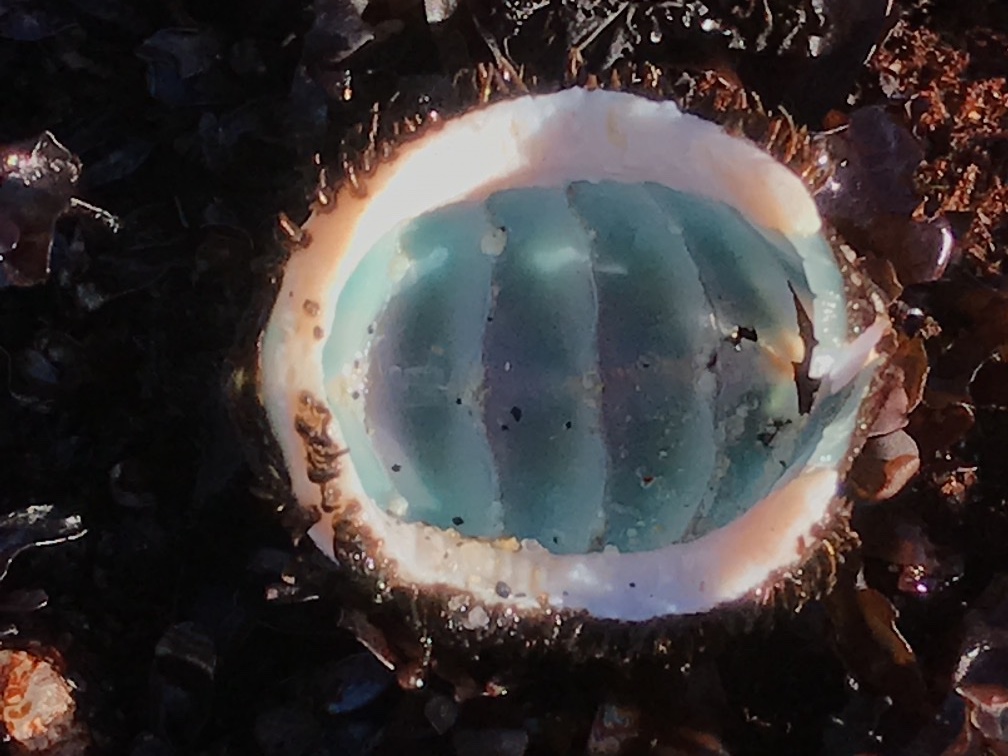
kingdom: Animalia
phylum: Mollusca
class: Polyplacophora
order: Chitonida
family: Mopaliidae
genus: Mopalia
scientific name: Mopalia muscosa
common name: Mossy chiton
